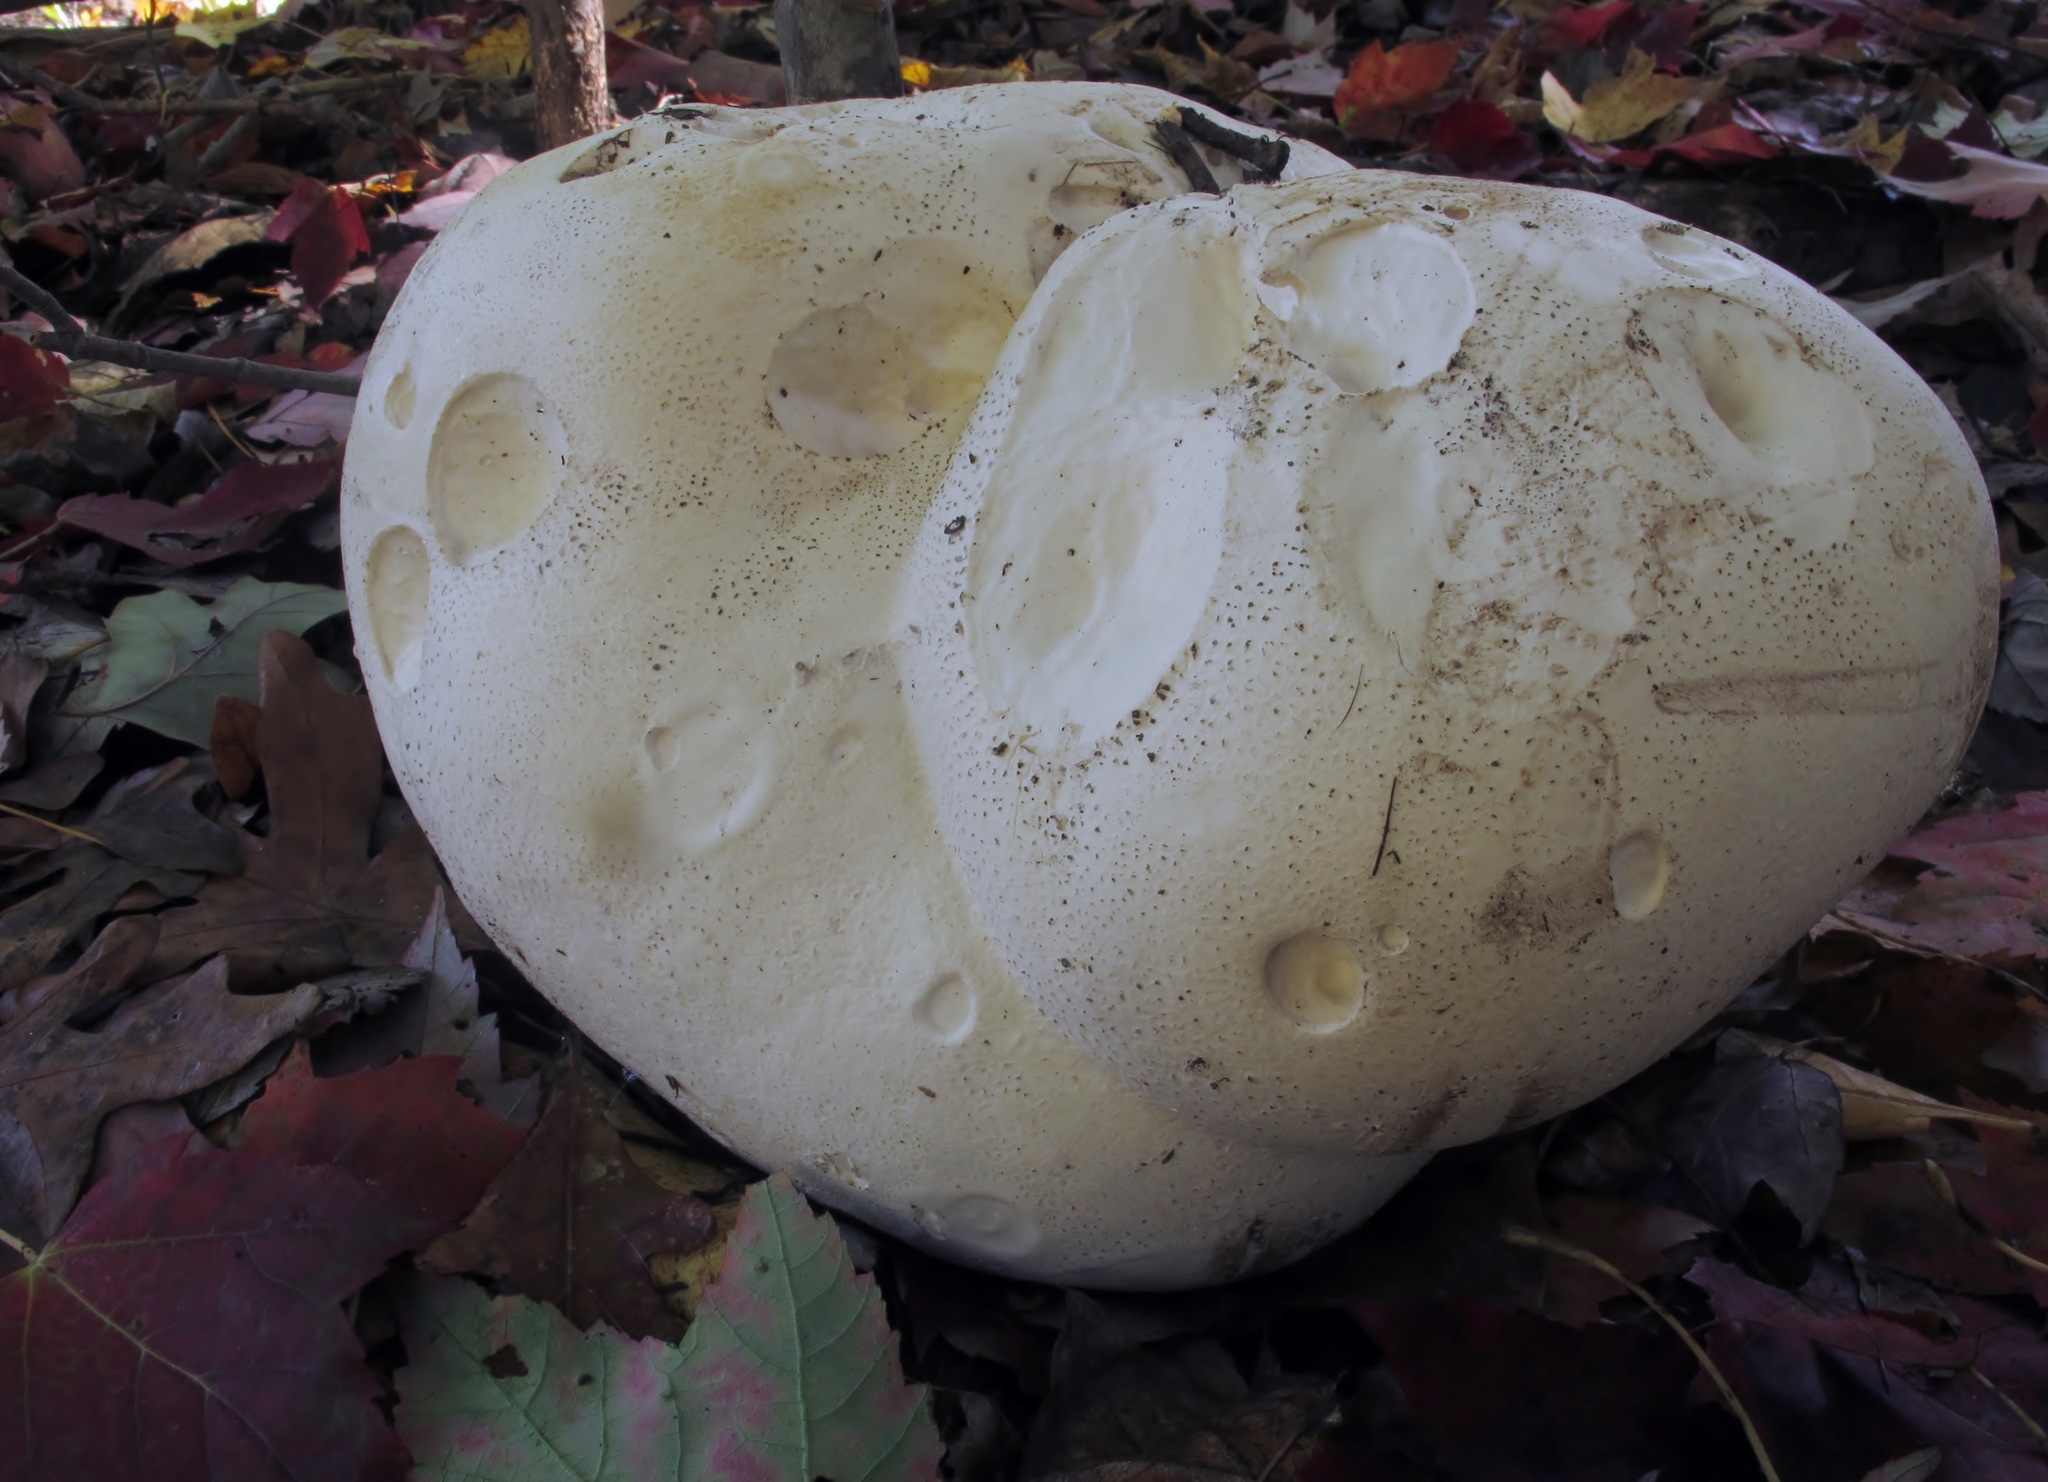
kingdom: Fungi
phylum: Basidiomycota
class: Agaricomycetes
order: Agaricales
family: Lycoperdaceae
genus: Calvatia
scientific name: Calvatia gigantea
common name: Giant puffball
